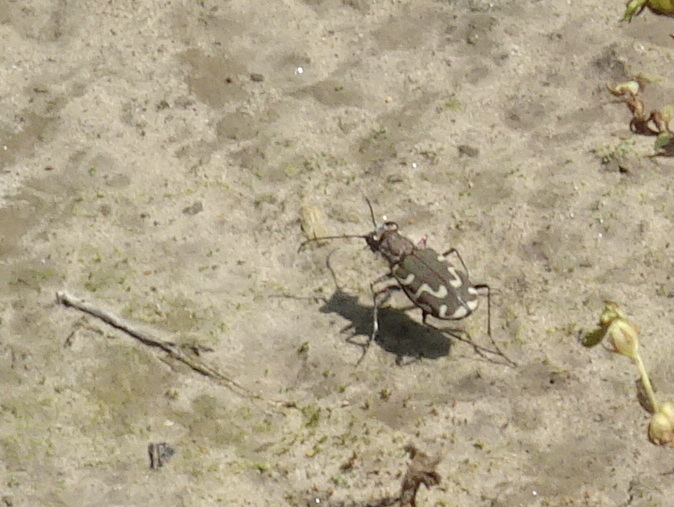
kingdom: Animalia
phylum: Arthropoda
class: Insecta
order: Coleoptera
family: Carabidae
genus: Cicindela
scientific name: Cicindela repanda
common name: Bronzed tiger beetle
